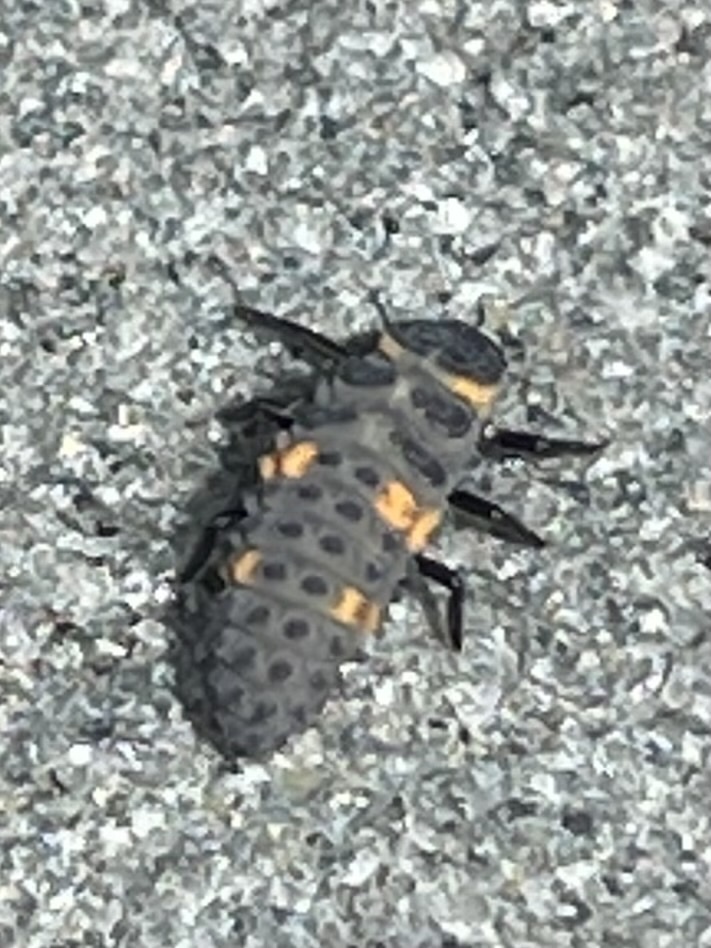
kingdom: Animalia
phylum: Arthropoda
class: Insecta
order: Coleoptera
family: Coccinellidae
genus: Coccinella
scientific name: Coccinella septempunctata
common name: Sevenspotted lady beetle
